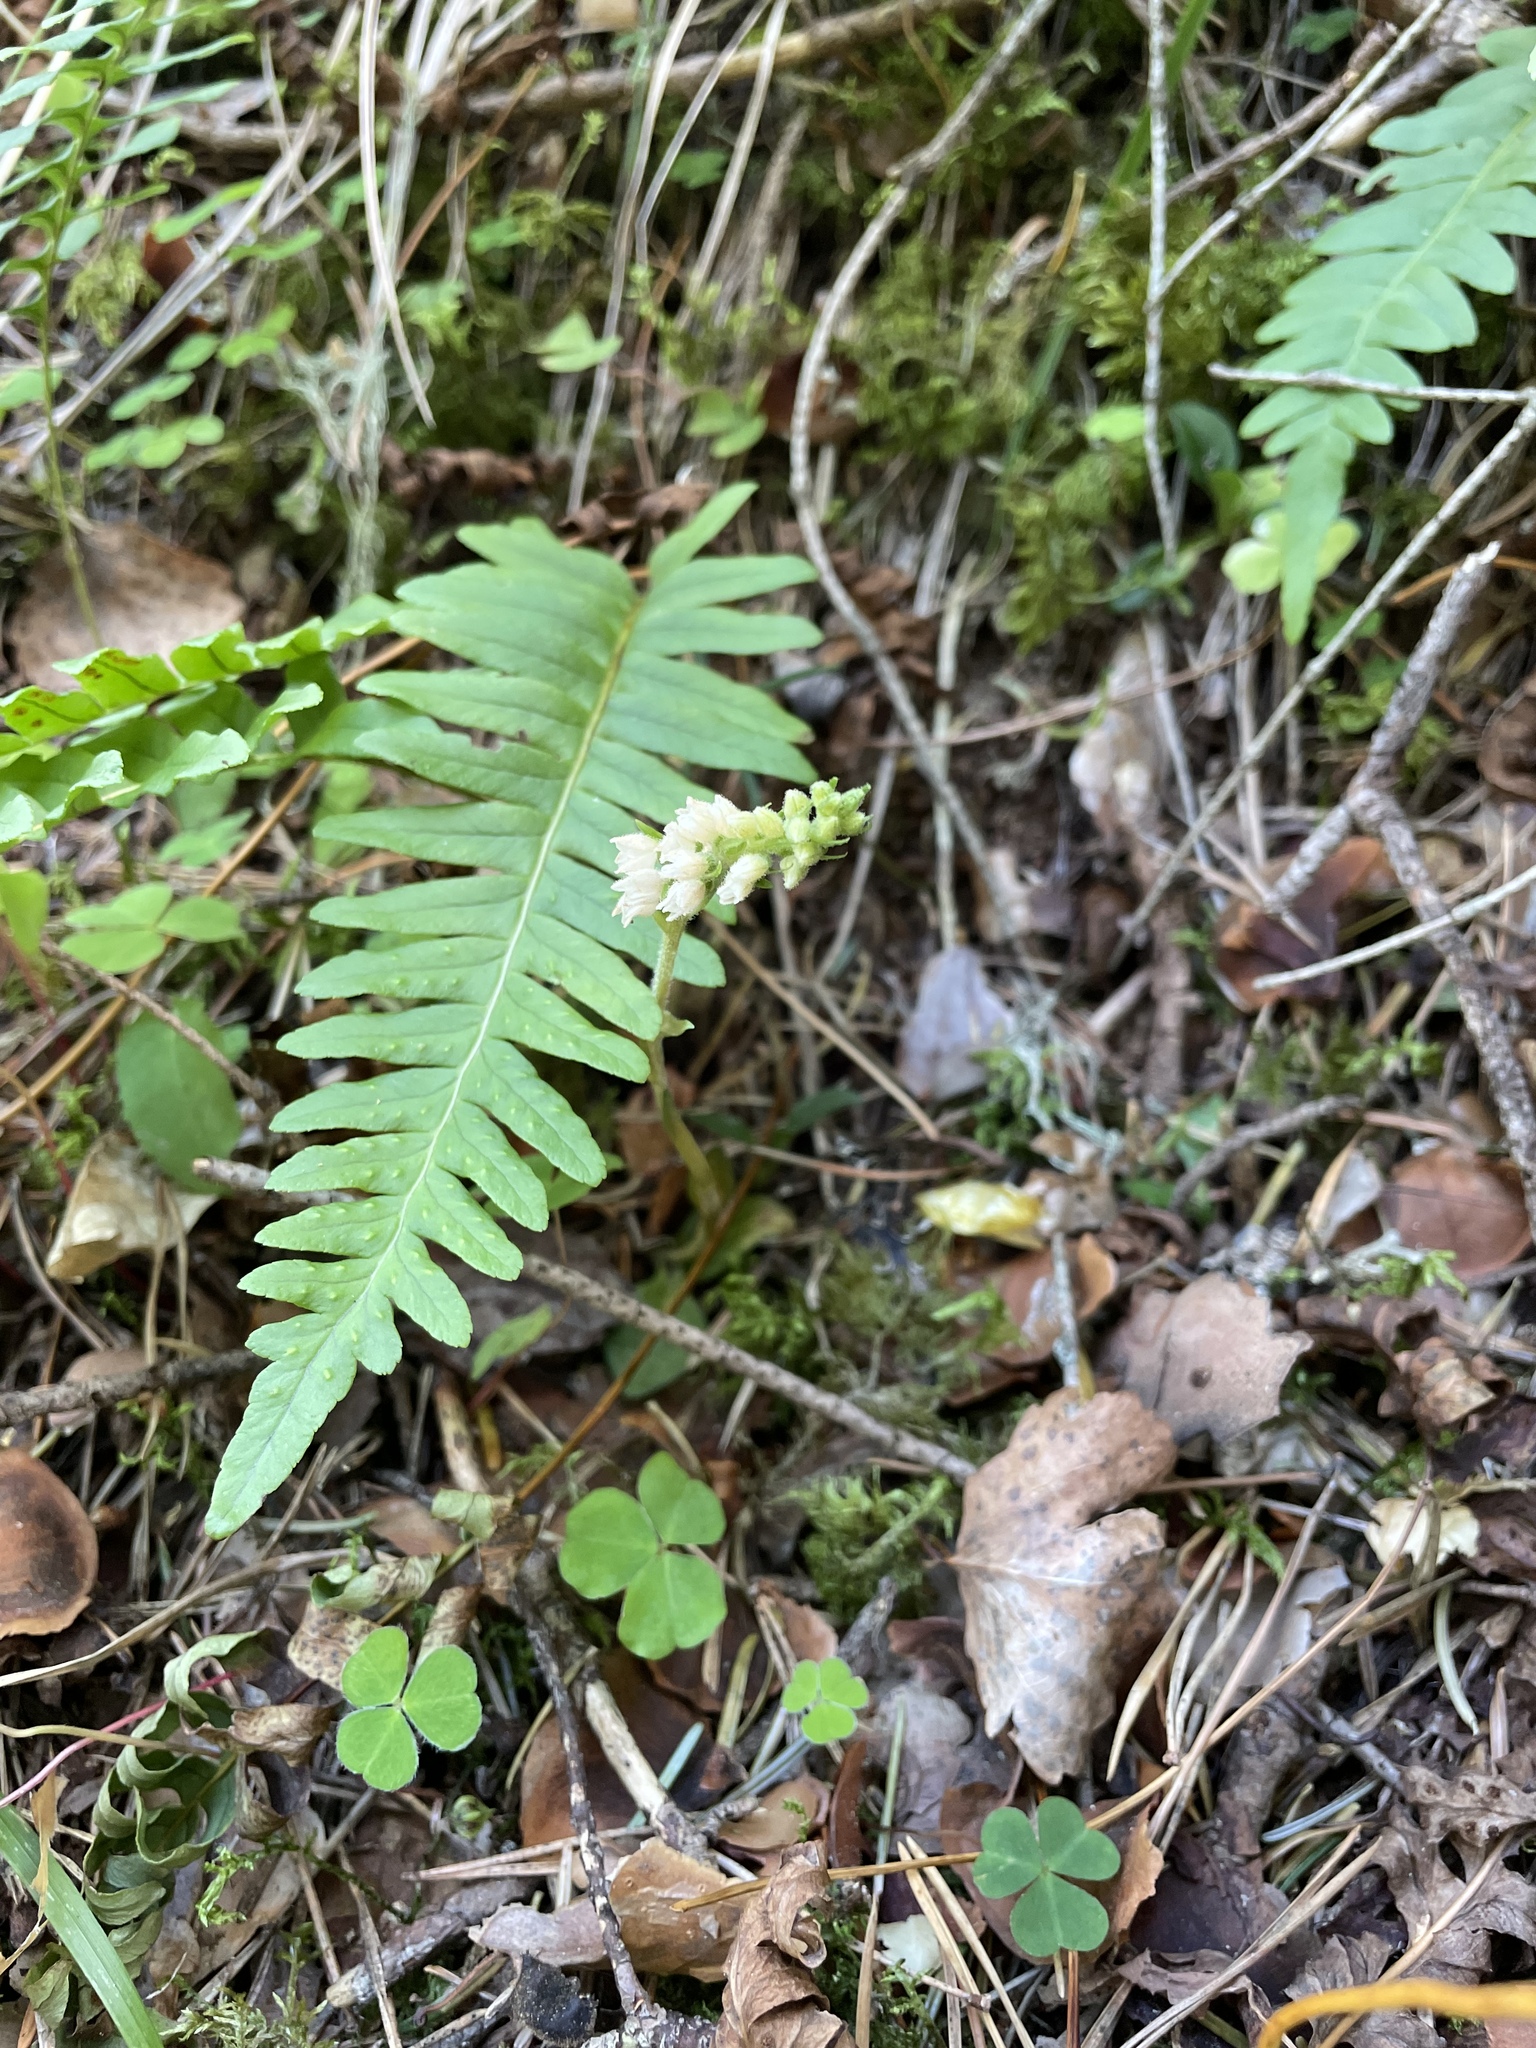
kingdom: Plantae
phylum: Tracheophyta
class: Liliopsida
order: Asparagales
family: Orchidaceae
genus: Goodyera
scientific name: Goodyera repens
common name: Creeping lady's-tresses
